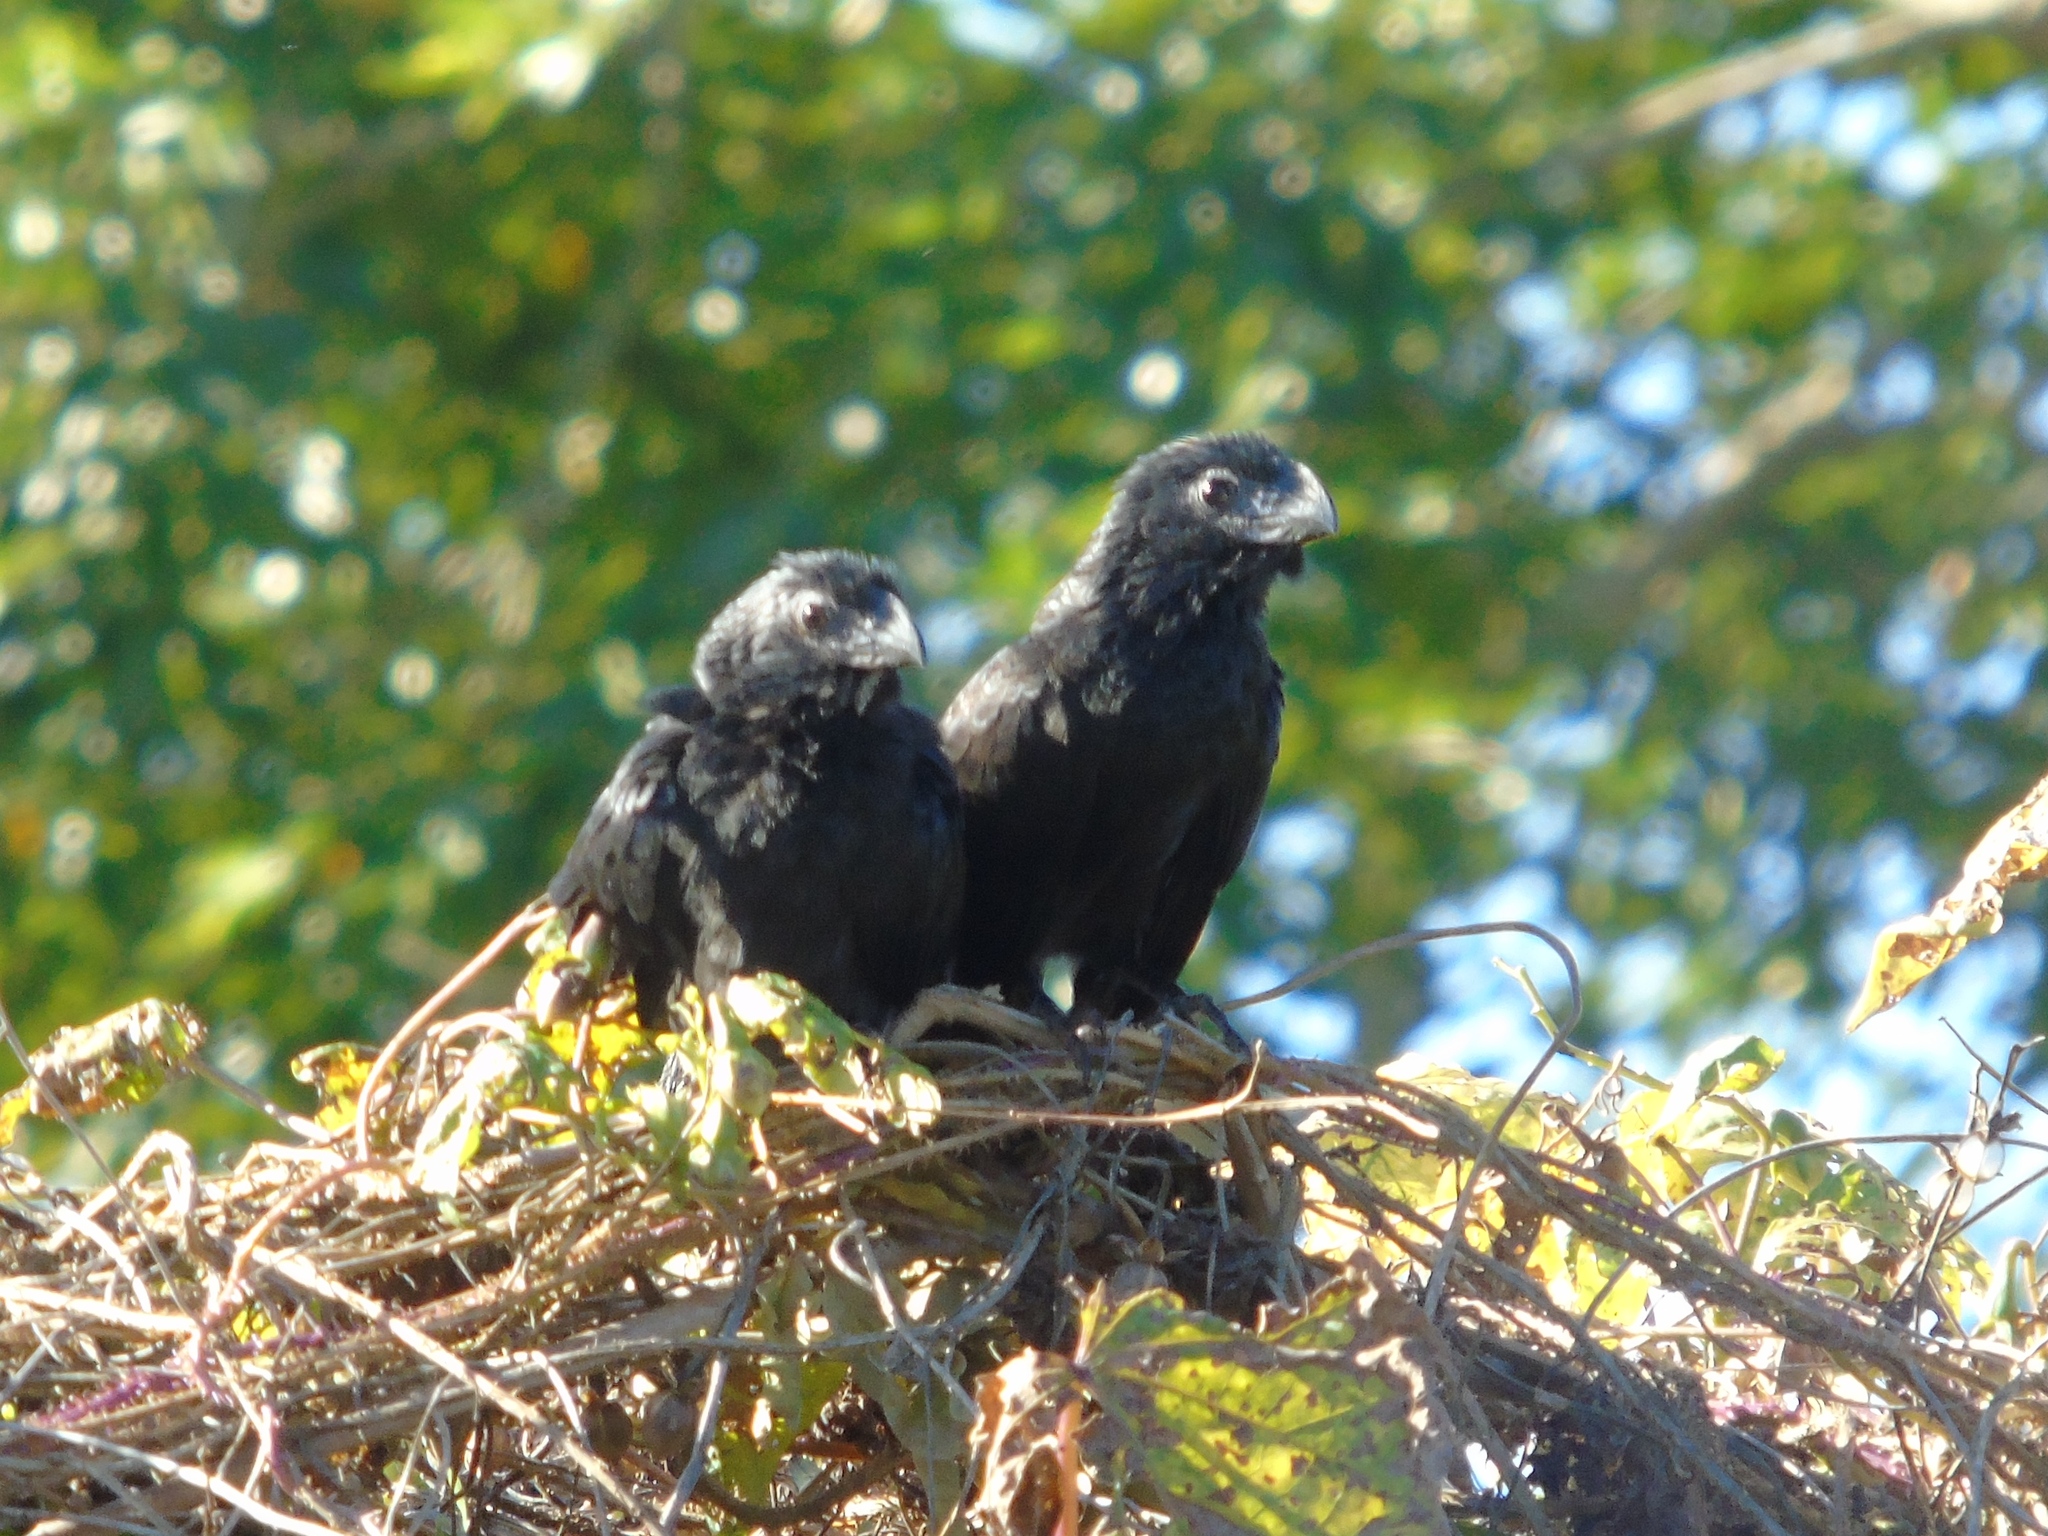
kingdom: Animalia
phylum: Chordata
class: Aves
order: Cuculiformes
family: Cuculidae
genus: Crotophaga
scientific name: Crotophaga sulcirostris
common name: Groove-billed ani
